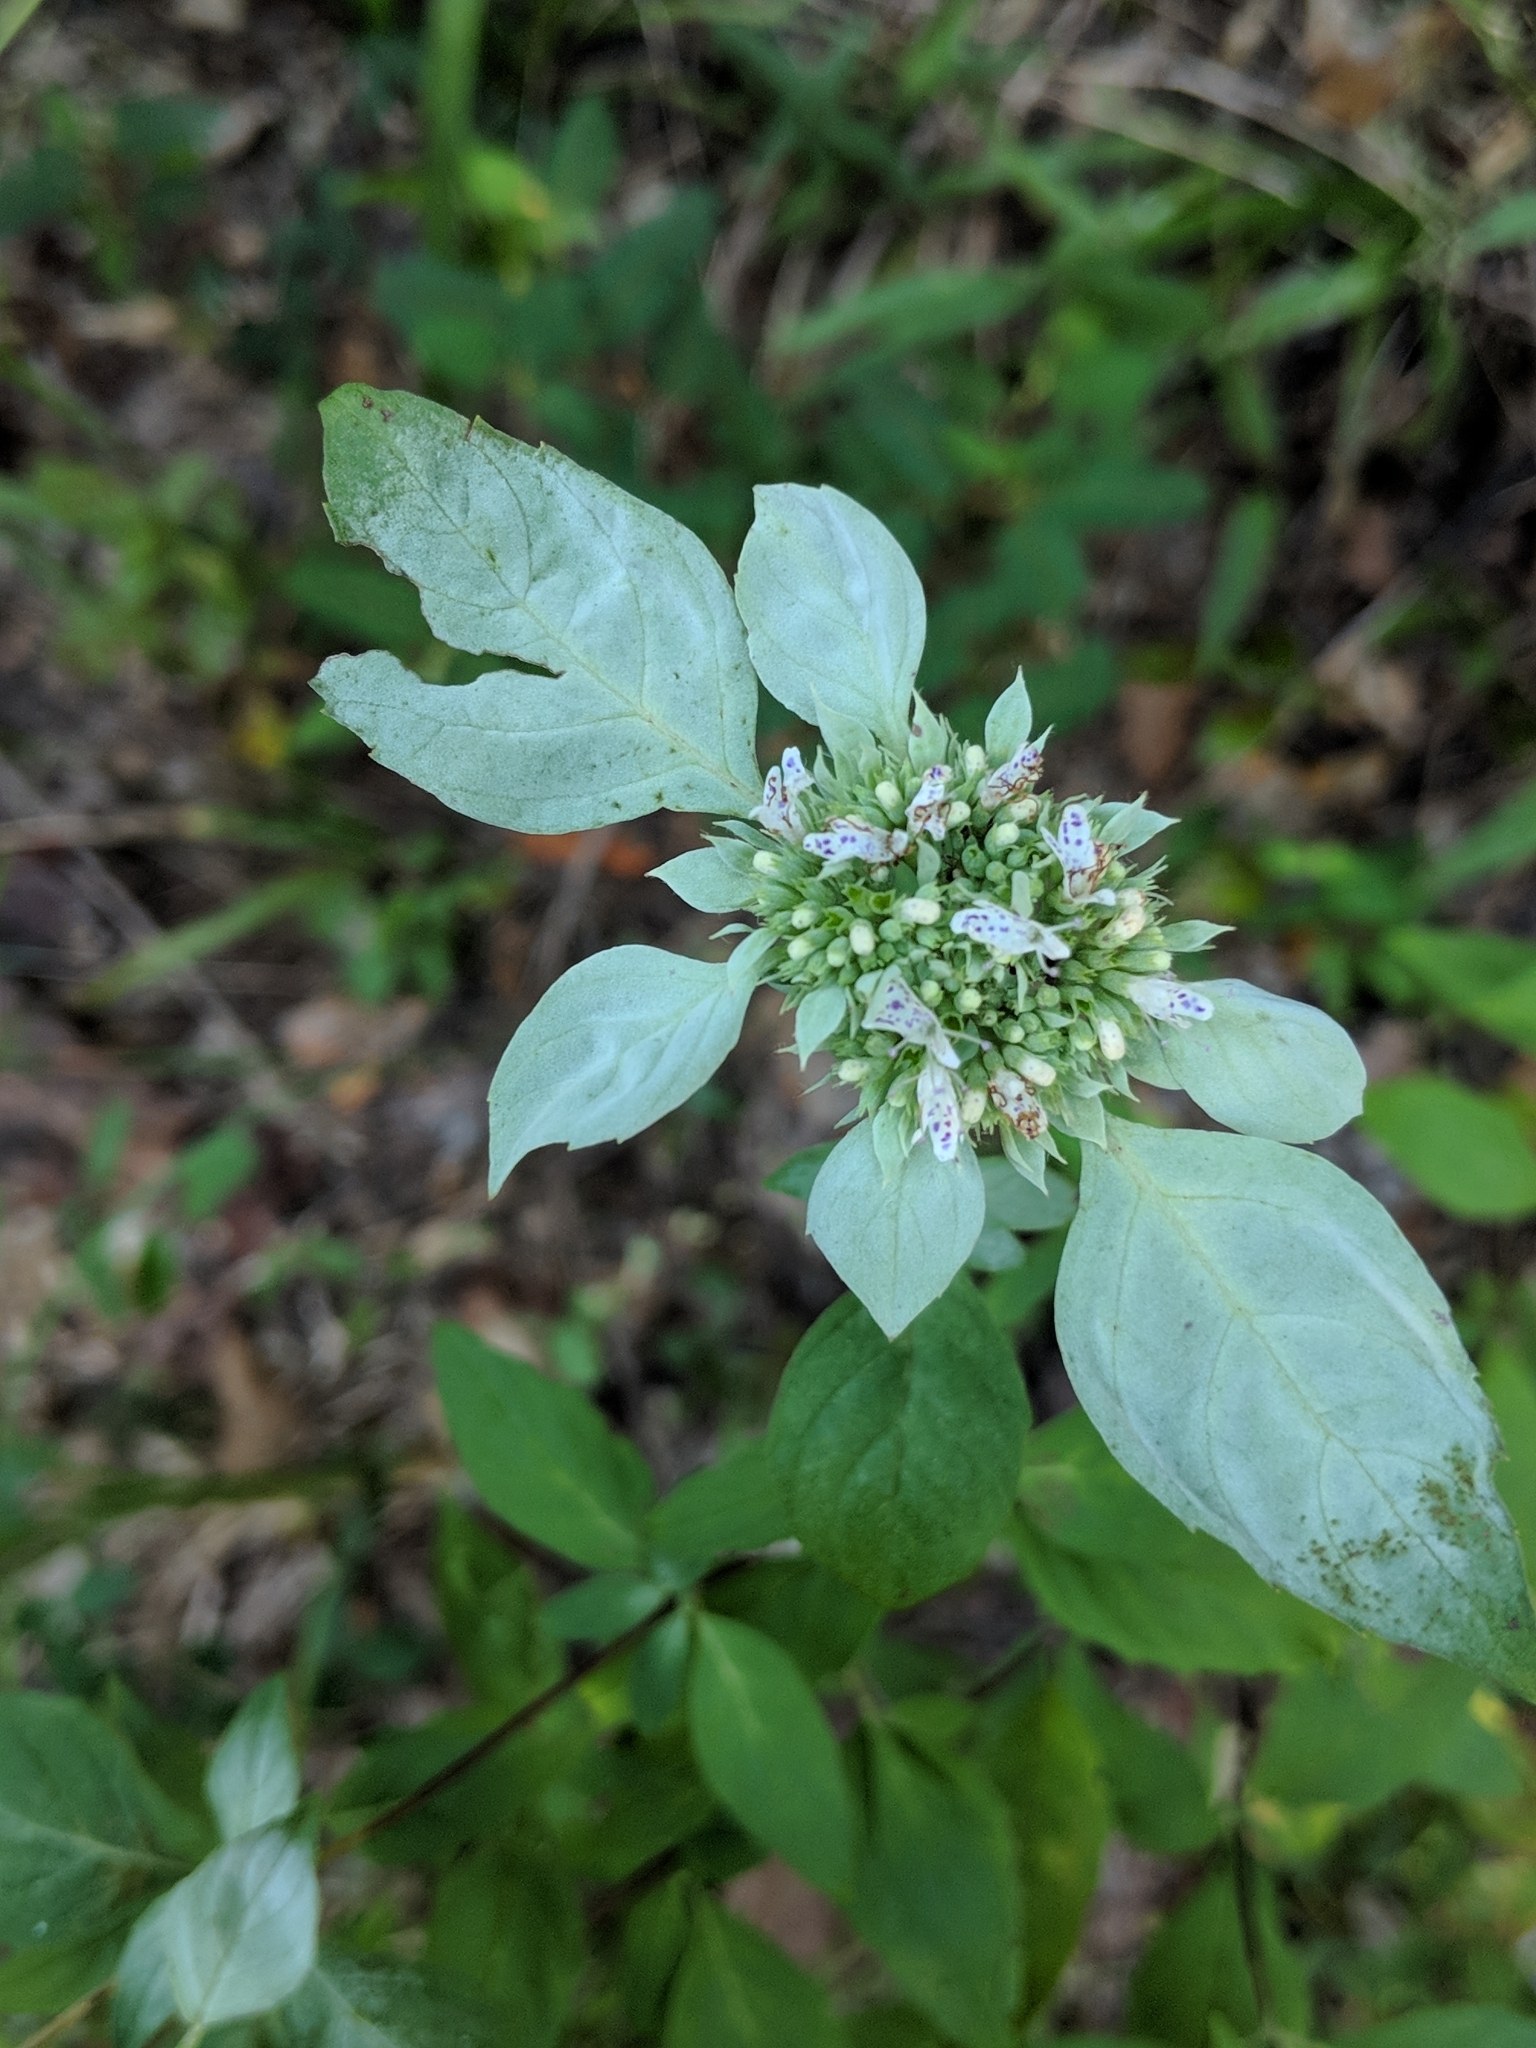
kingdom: Plantae
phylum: Tracheophyta
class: Magnoliopsida
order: Lamiales
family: Lamiaceae
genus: Pycnanthemum
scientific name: Pycnanthemum albescens
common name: White-leaf mountain-mint
